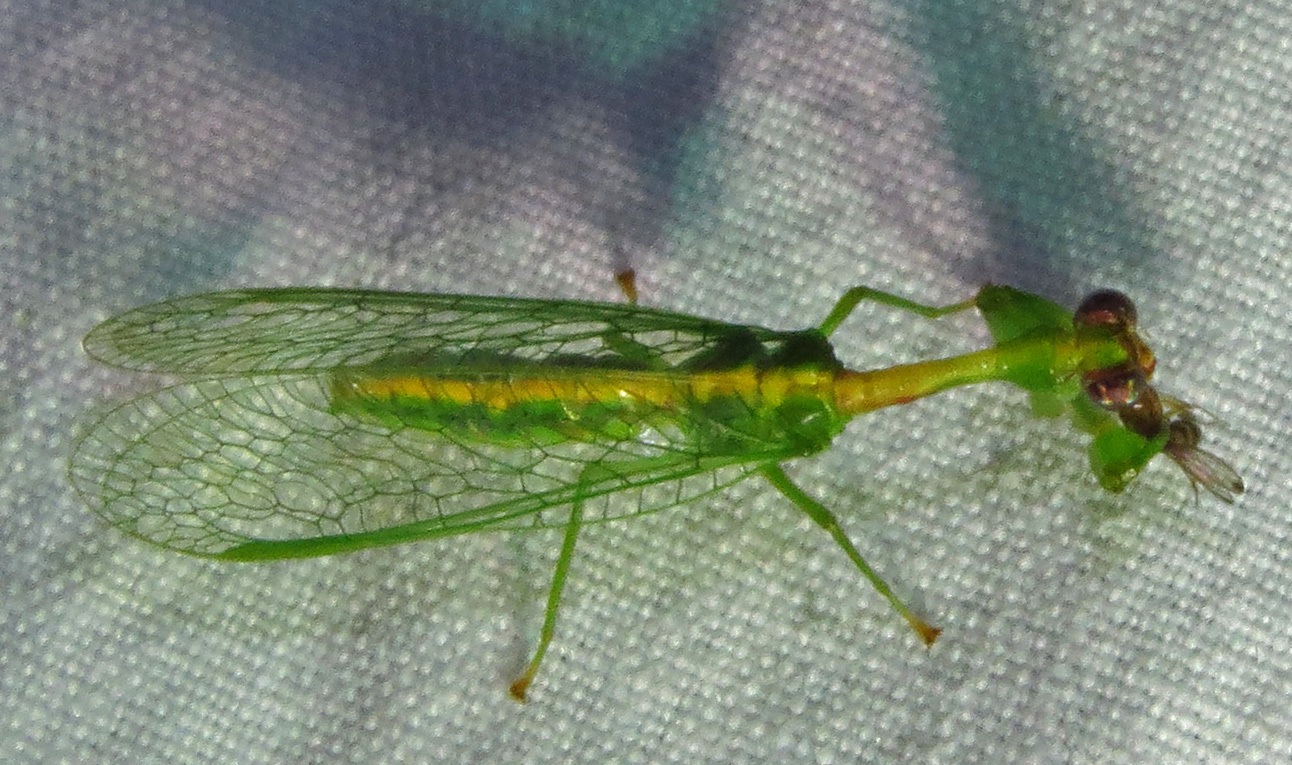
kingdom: Animalia
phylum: Arthropoda
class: Insecta
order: Neuroptera
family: Mantispidae
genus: Zeugomantispa
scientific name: Zeugomantispa minuta
